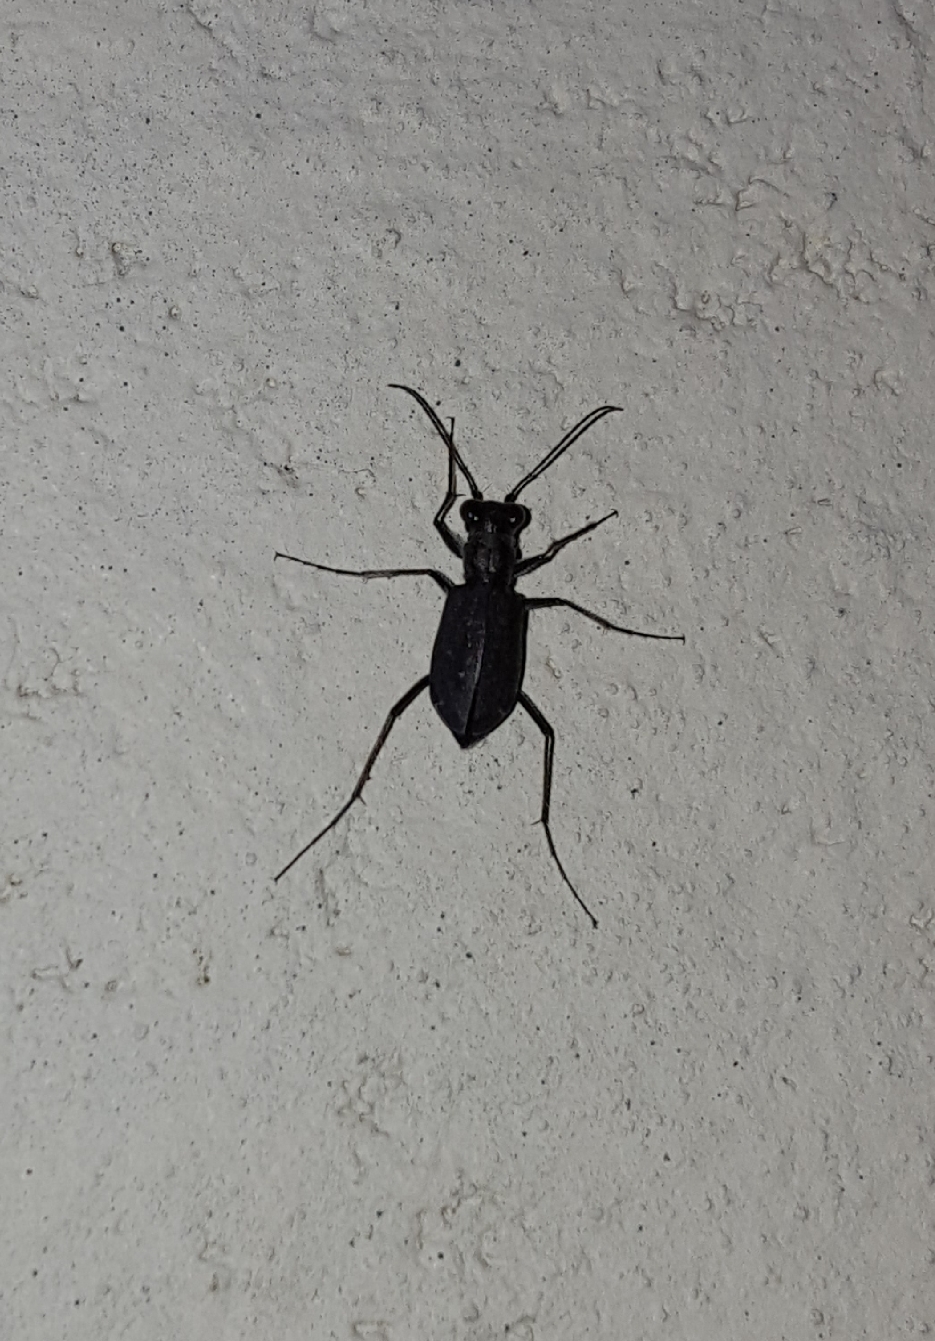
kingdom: Animalia
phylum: Arthropoda
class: Insecta
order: Coleoptera
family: Carabidae
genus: Cicindela
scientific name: Cicindela punctulata
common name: Punctured tiger beetle
